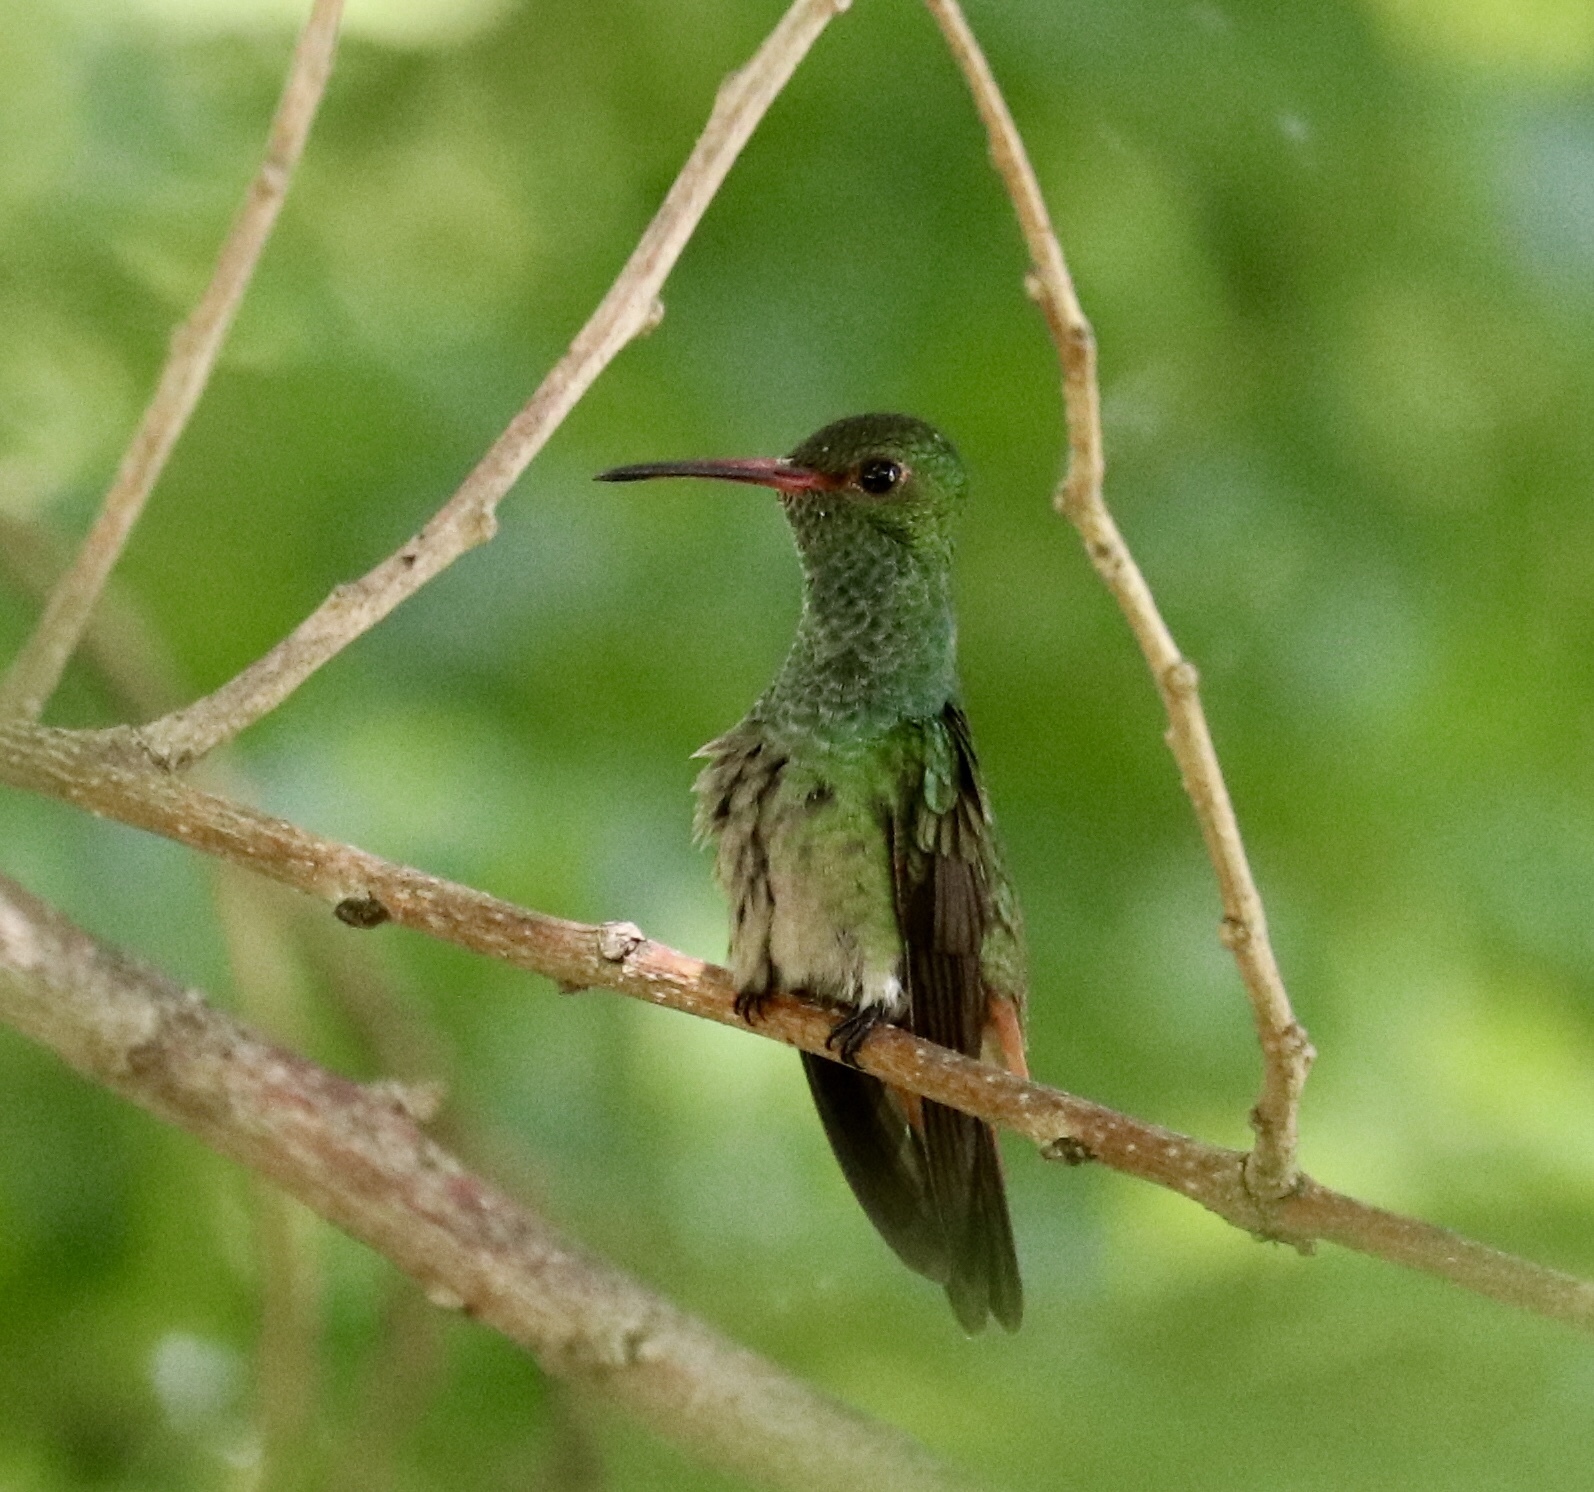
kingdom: Animalia
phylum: Chordata
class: Aves
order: Apodiformes
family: Trochilidae
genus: Amazilia
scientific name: Amazilia tzacatl
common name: Rufous-tailed hummingbird
